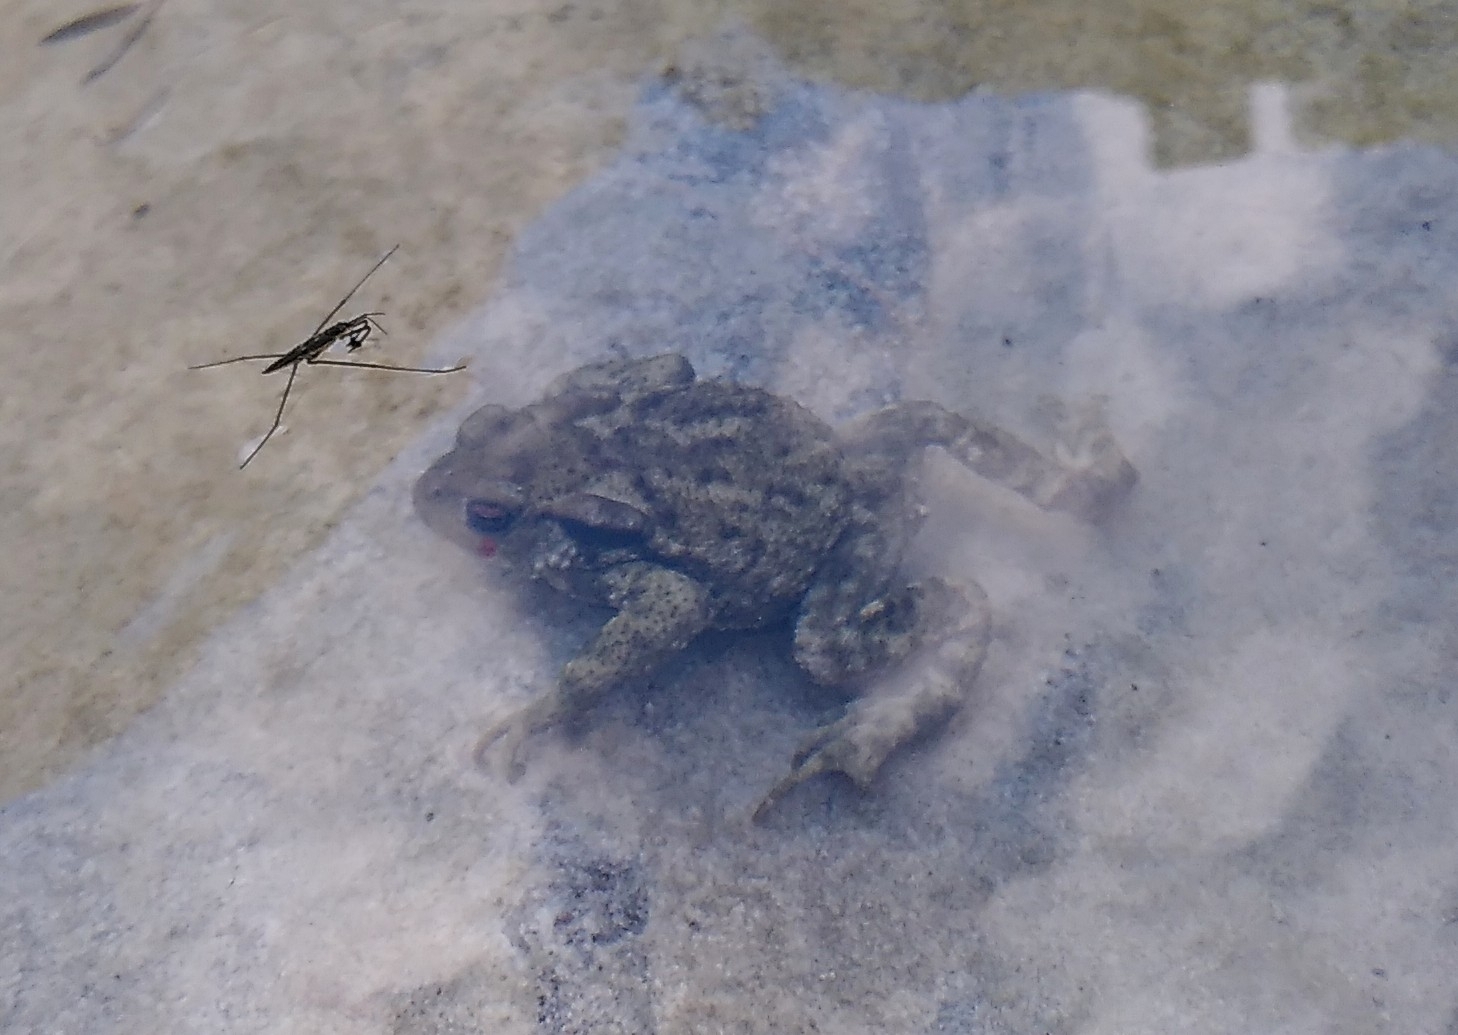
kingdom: Animalia
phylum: Chordata
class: Amphibia
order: Anura
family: Bufonidae
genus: Bufo
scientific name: Bufo spinosus
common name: Western common toad
